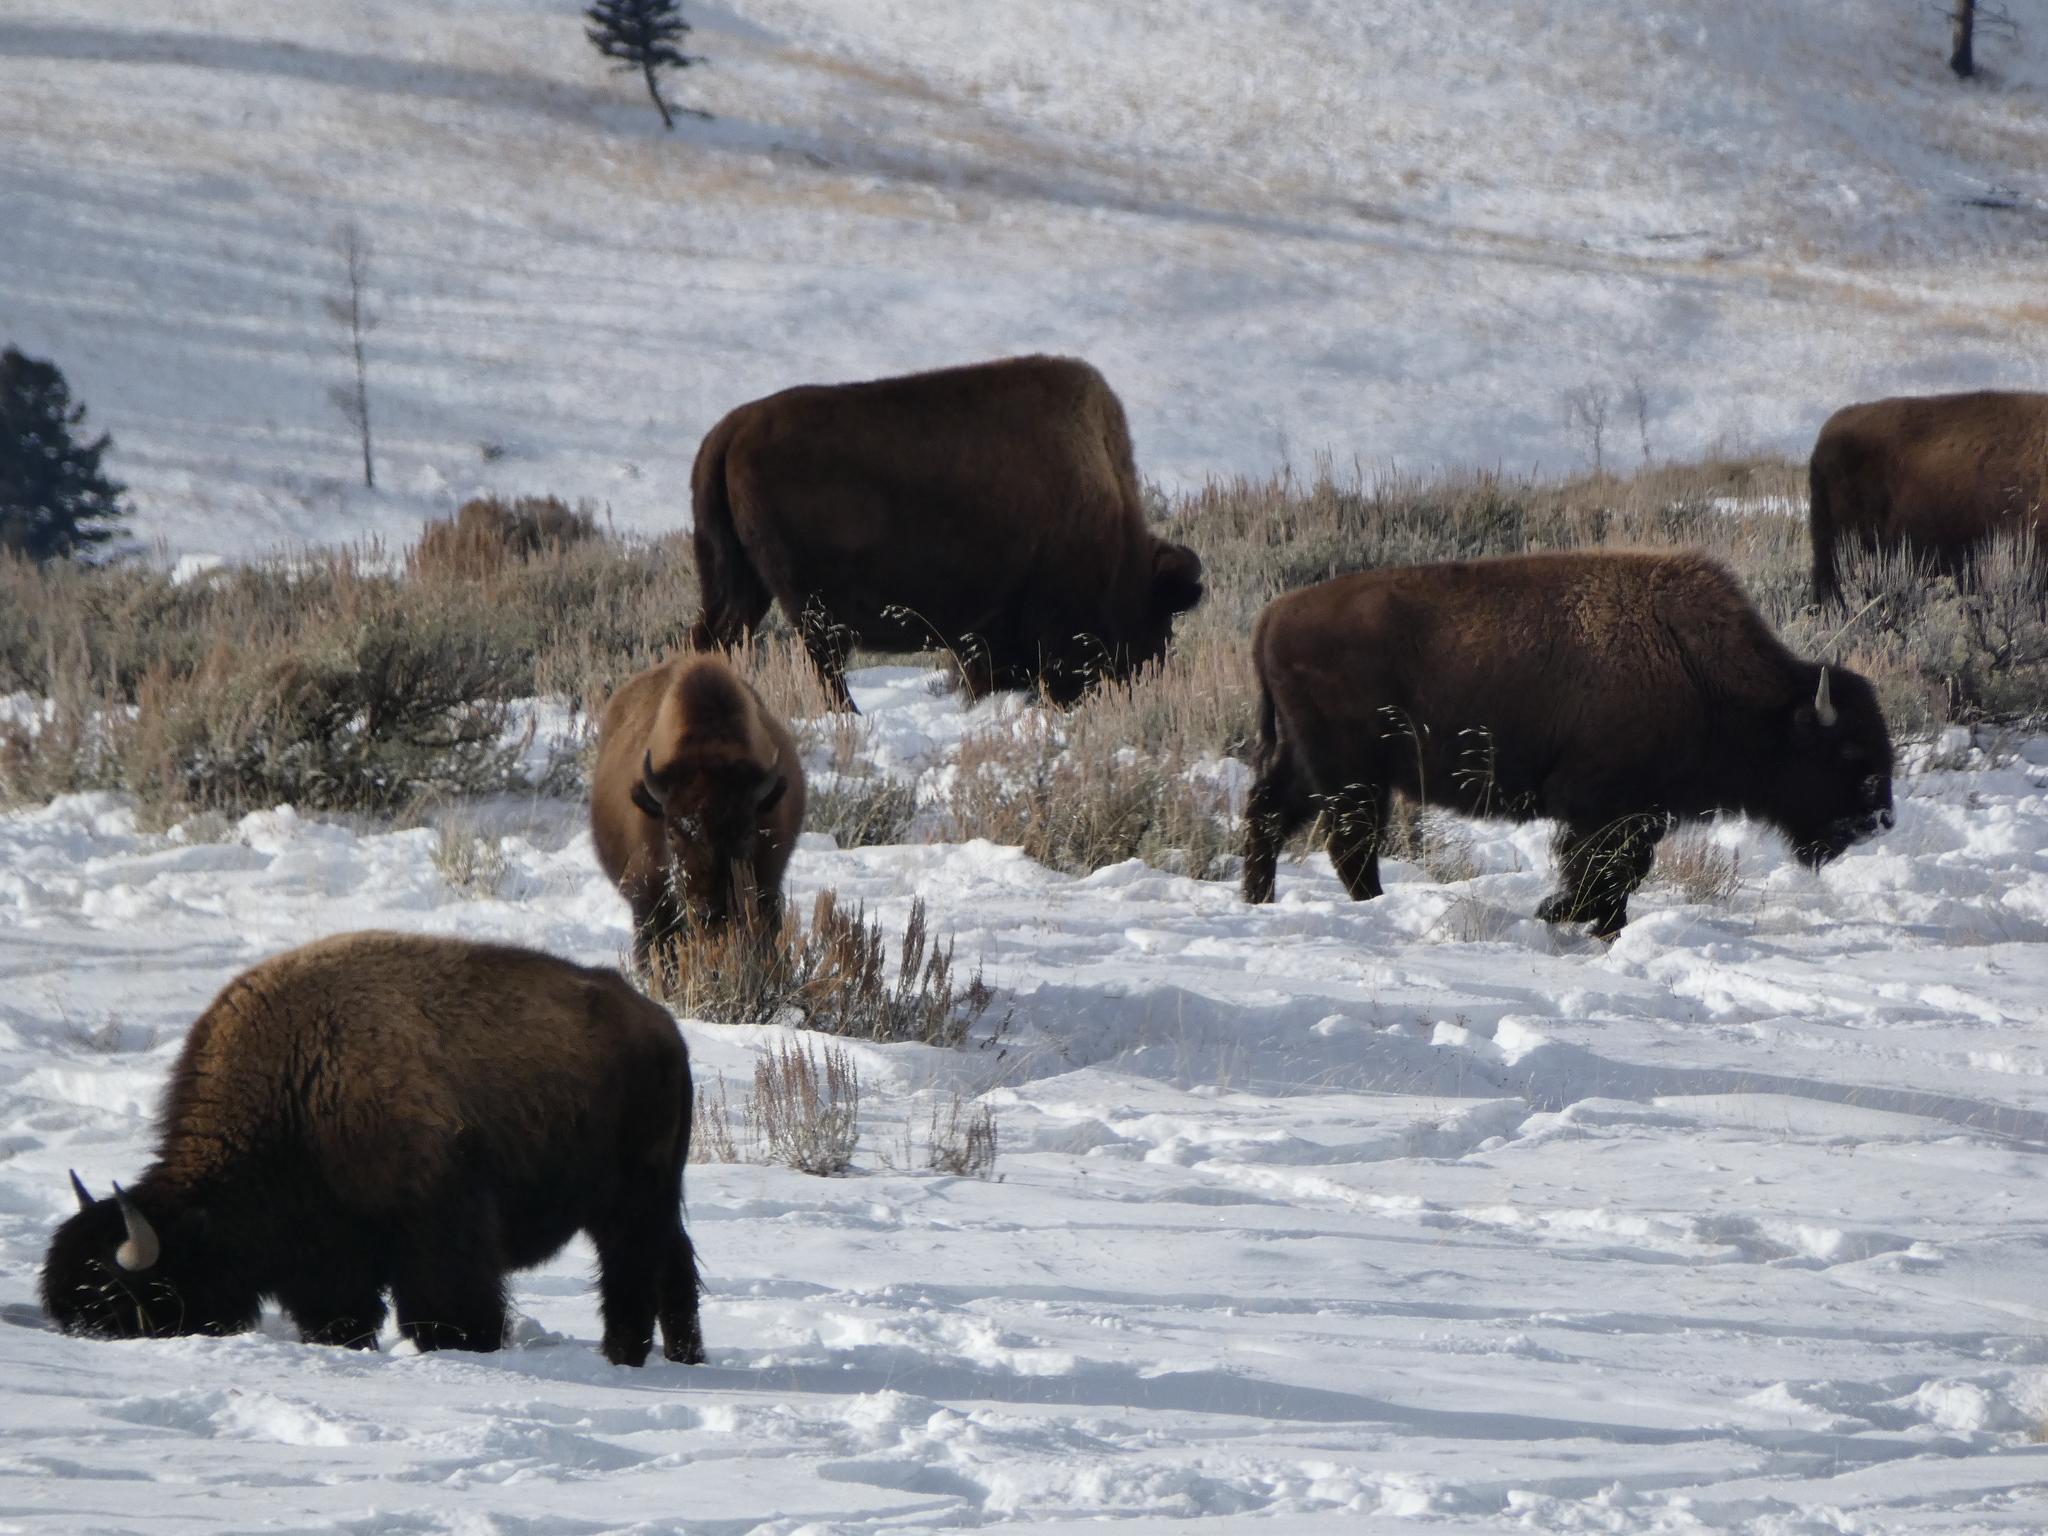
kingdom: Animalia
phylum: Chordata
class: Mammalia
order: Artiodactyla
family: Bovidae
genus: Bison
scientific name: Bison bison
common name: American bison
